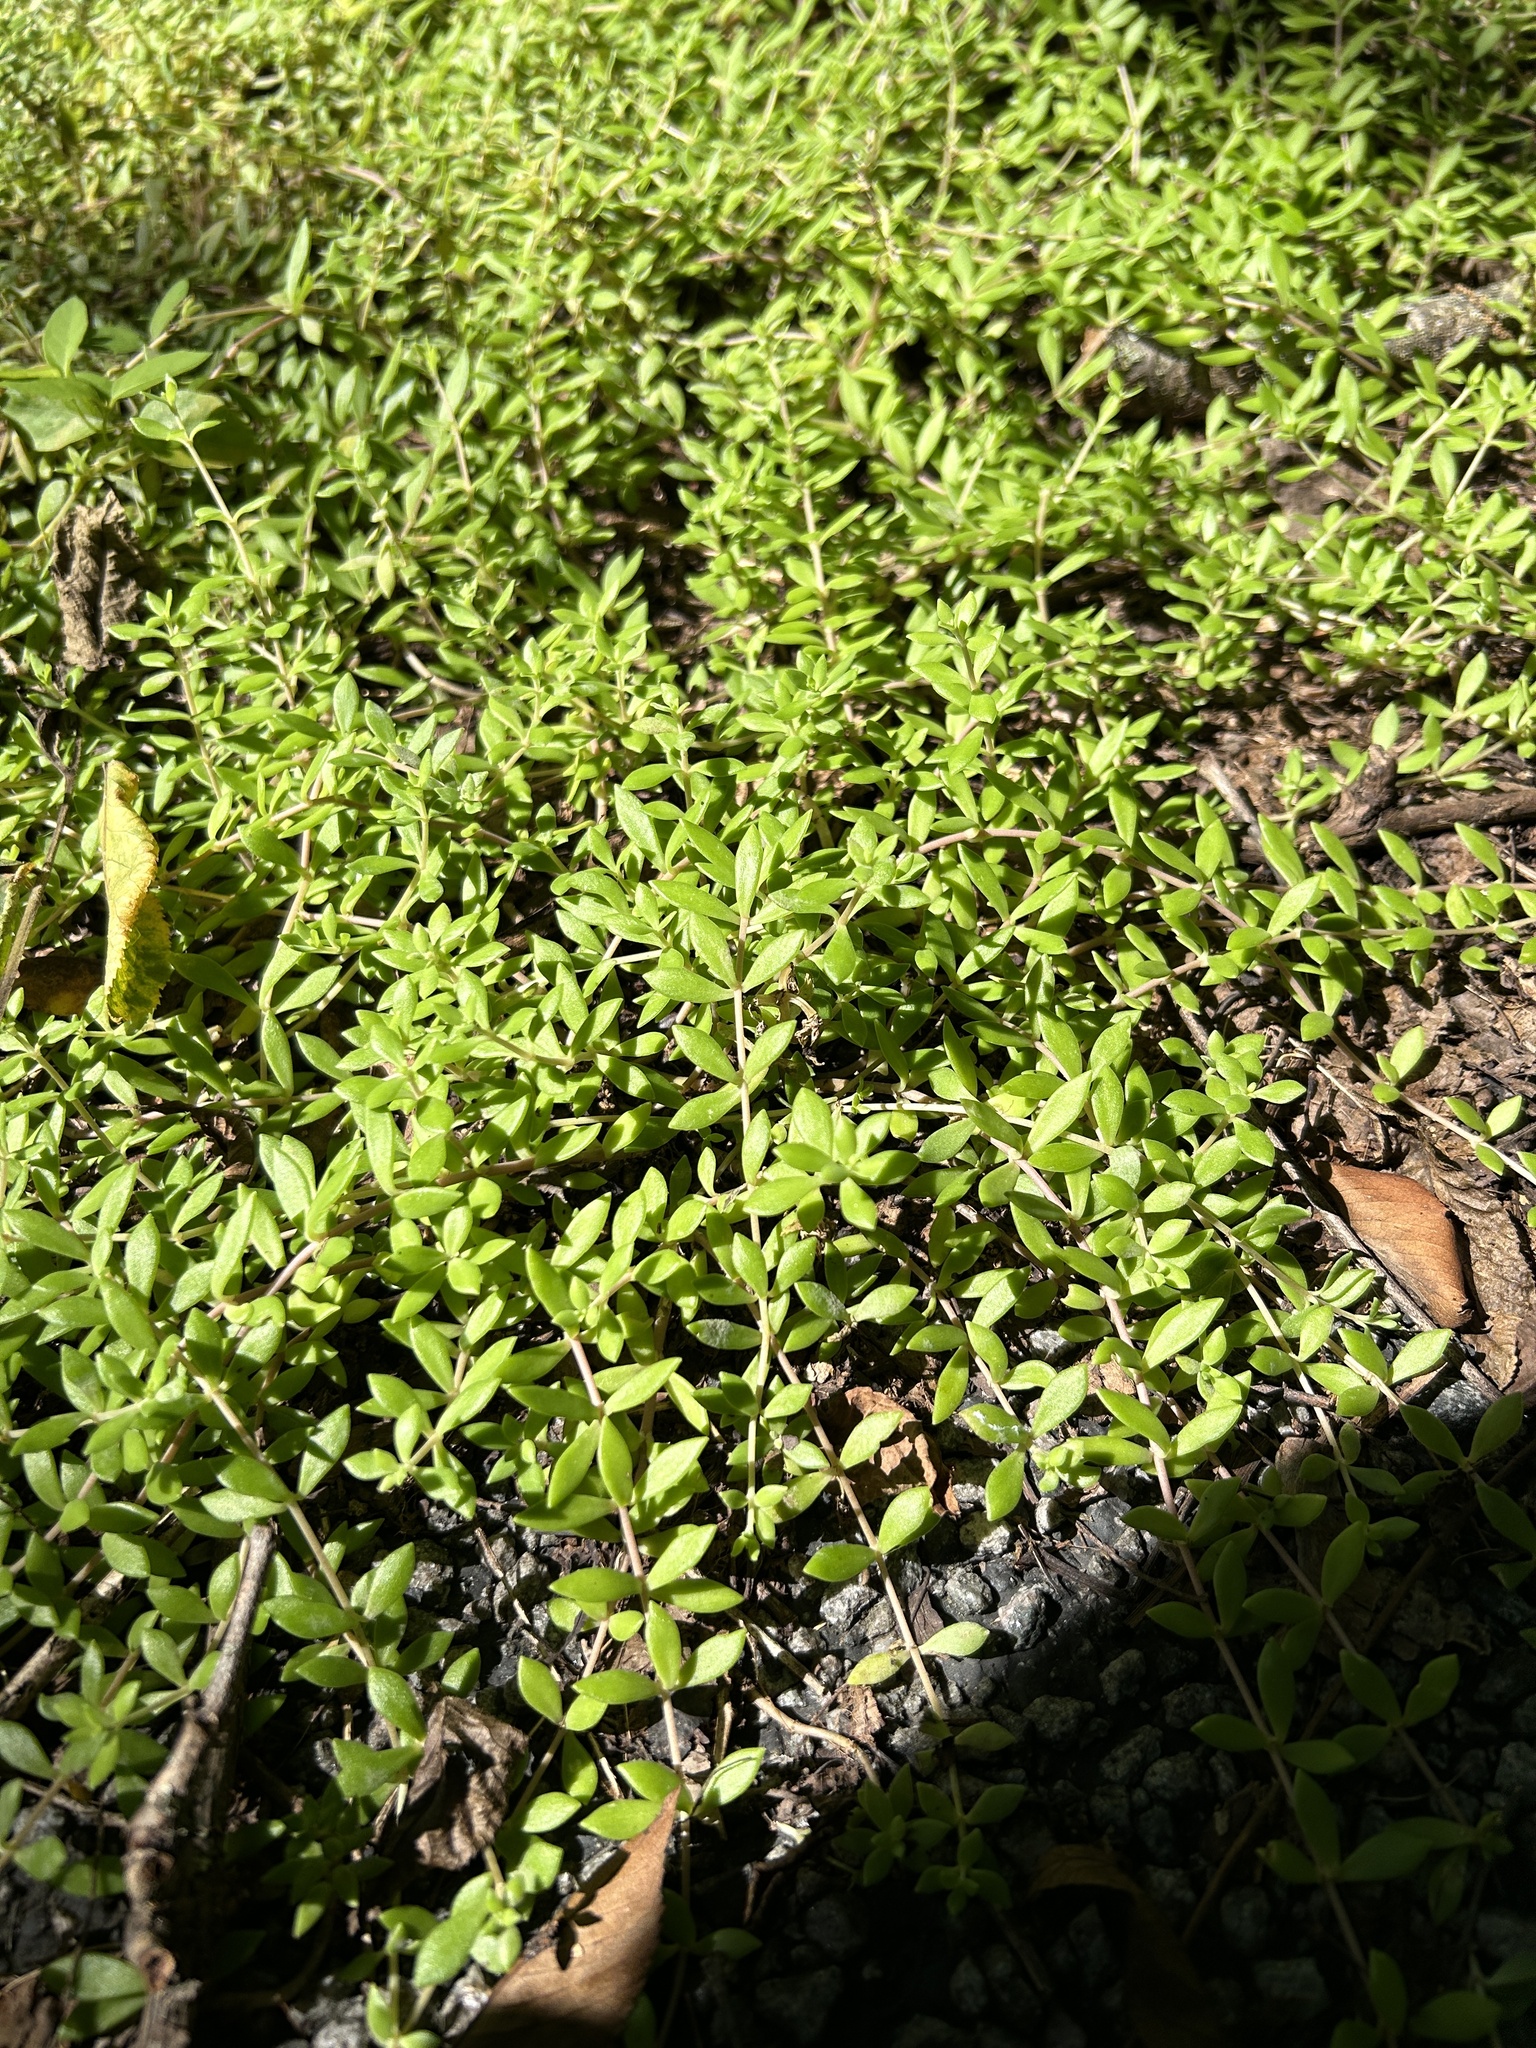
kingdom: Plantae
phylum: Tracheophyta
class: Magnoliopsida
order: Saxifragales
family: Crassulaceae
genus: Sedum
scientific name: Sedum sarmentosum
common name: Stringy stonecrop
